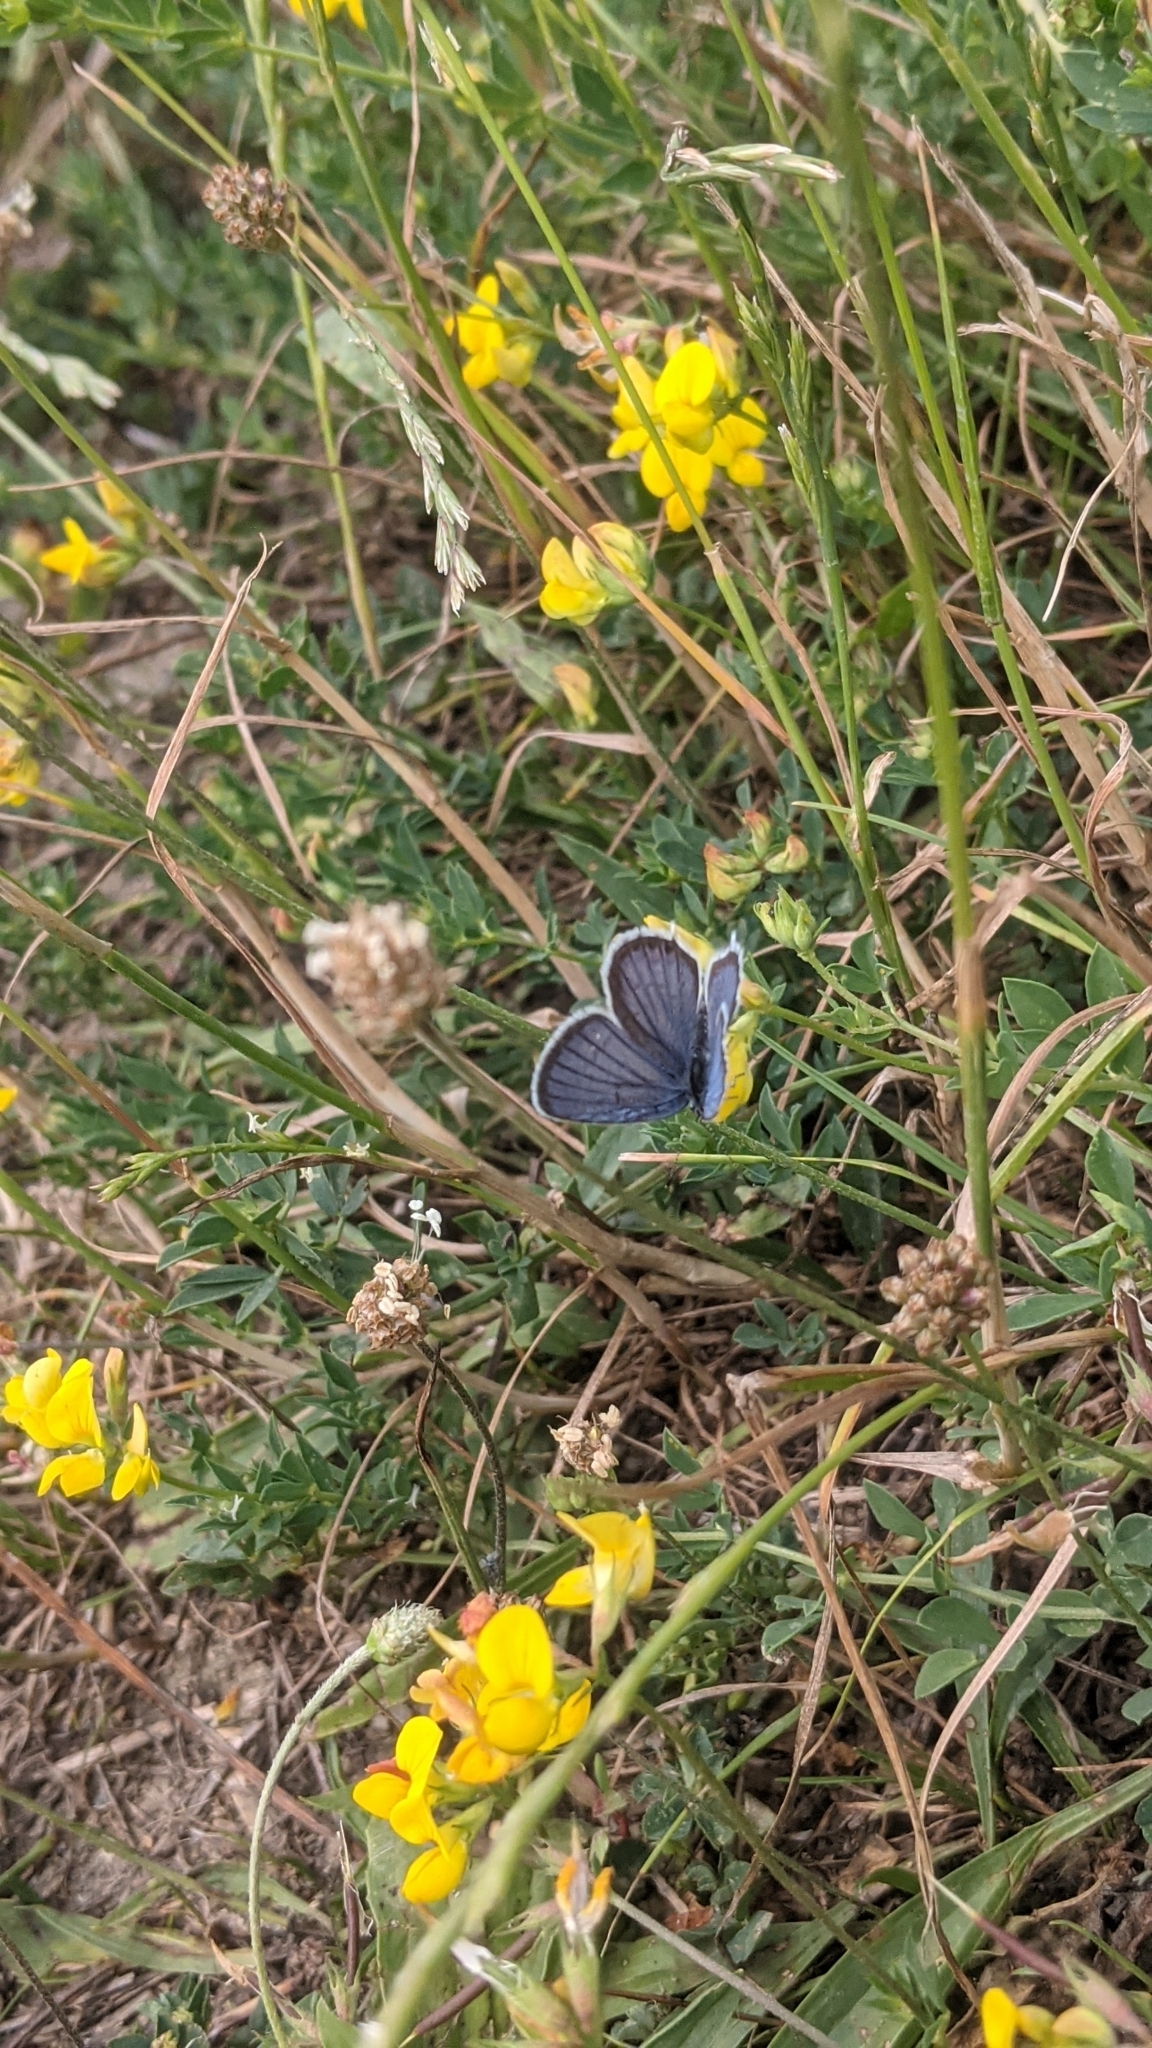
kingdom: Animalia
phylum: Arthropoda
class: Insecta
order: Lepidoptera
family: Lycaenidae
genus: Elkalyce
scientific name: Elkalyce argiades
